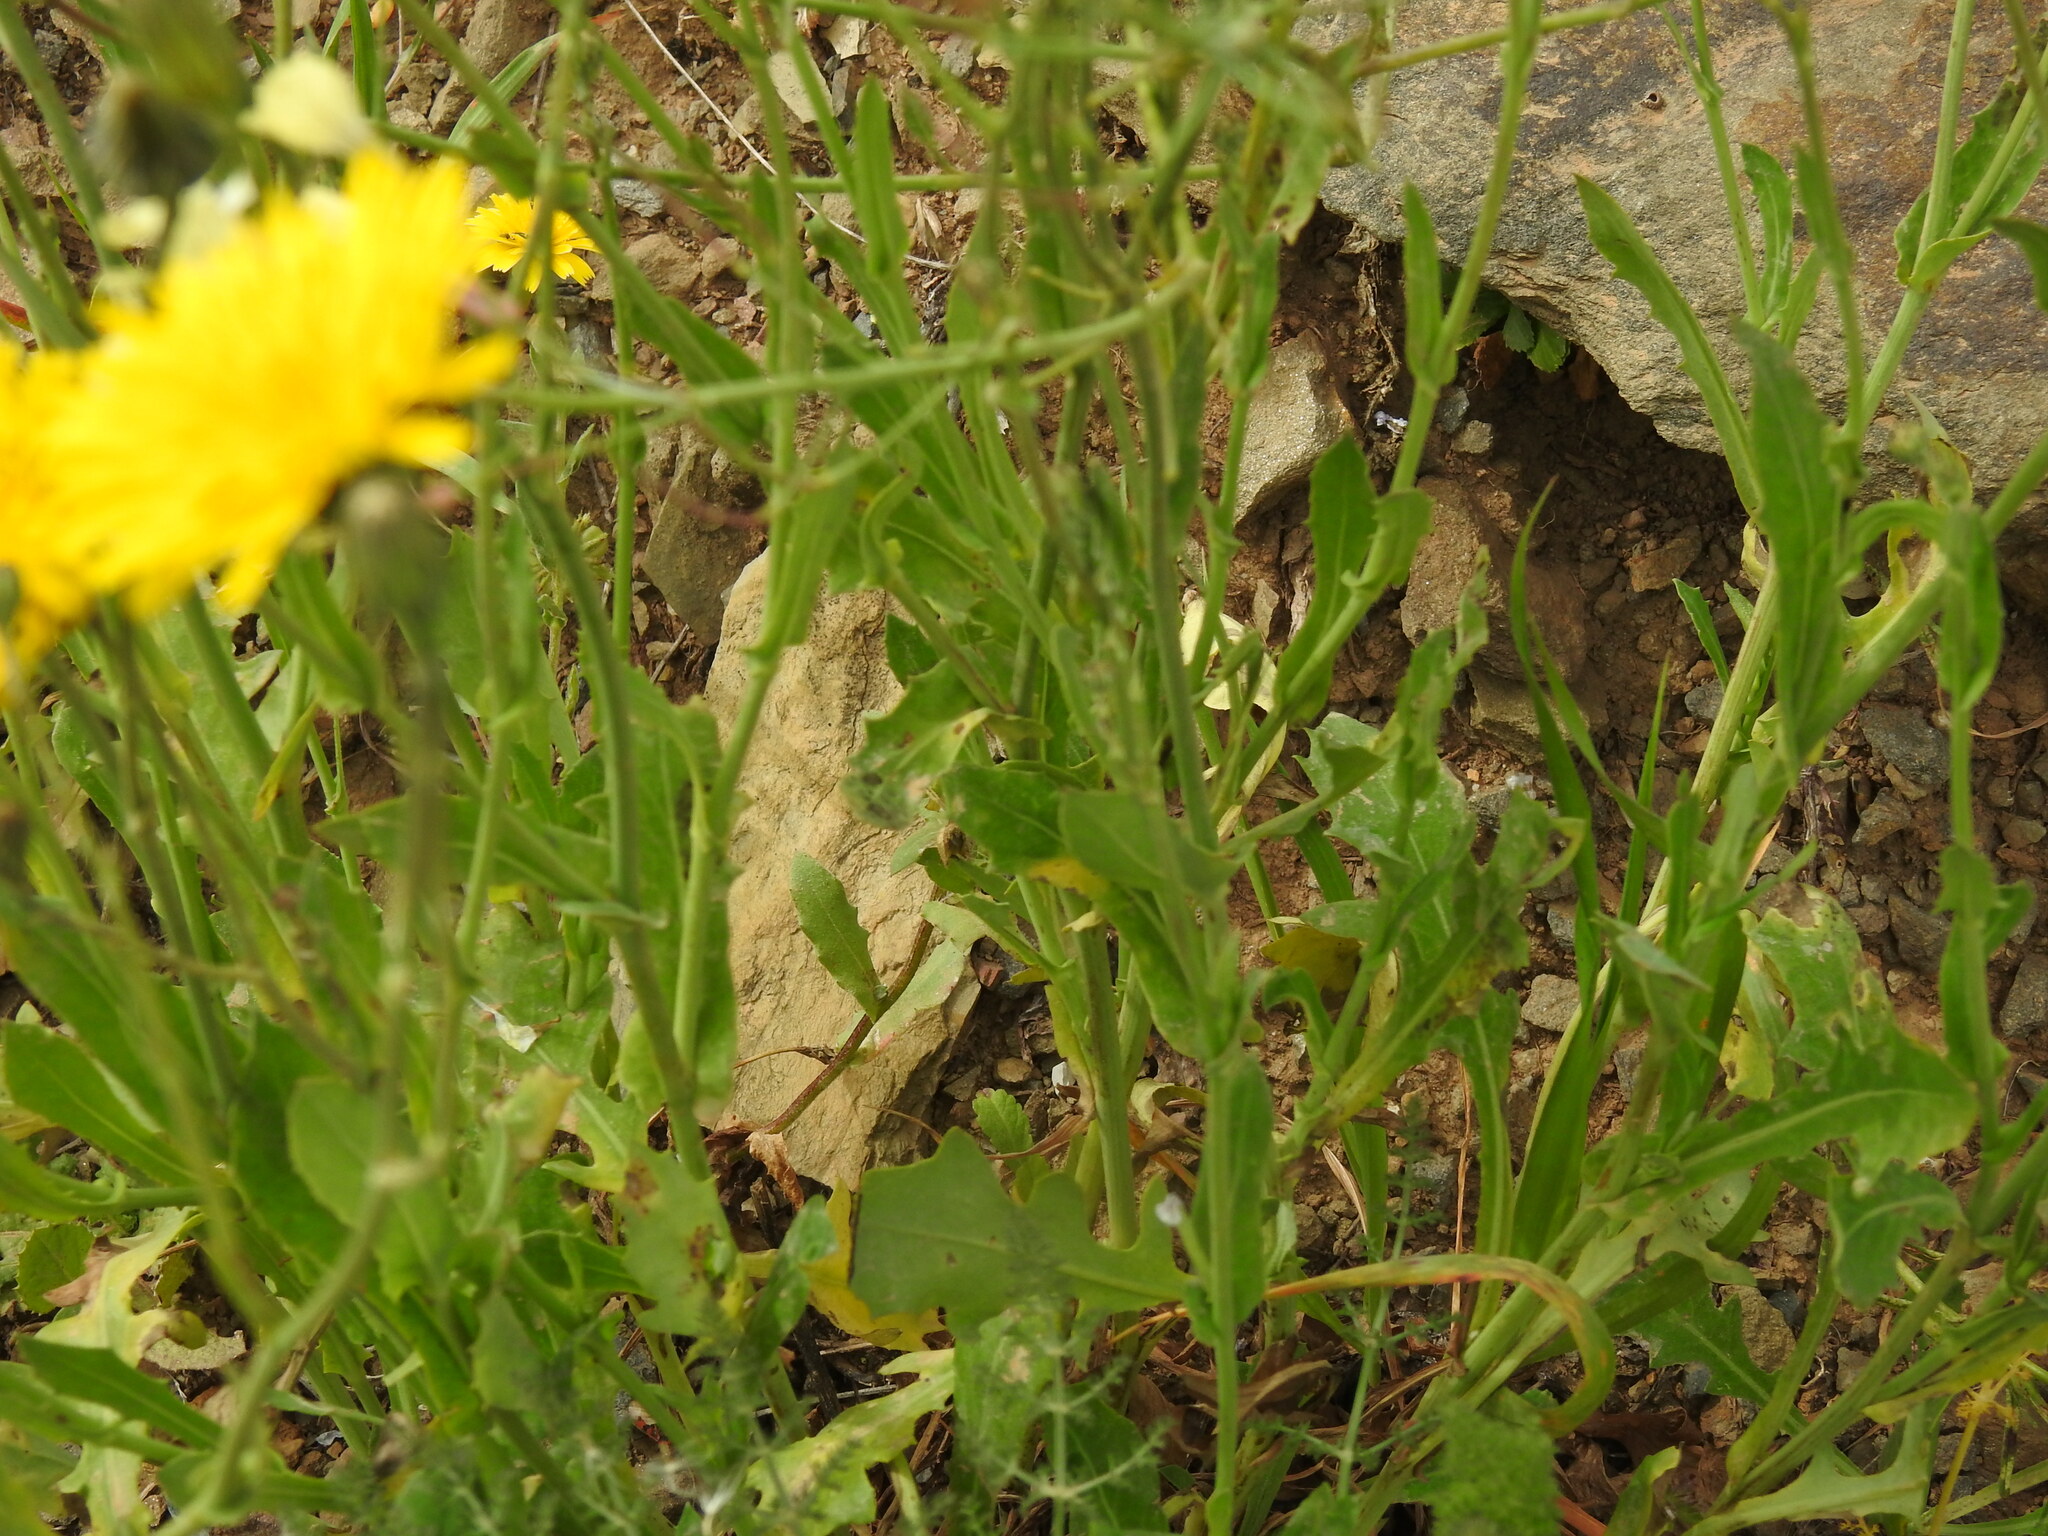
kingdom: Plantae
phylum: Tracheophyta
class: Magnoliopsida
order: Asterales
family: Asteraceae
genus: Reichardia
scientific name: Reichardia picroides
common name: Common brighteyes
